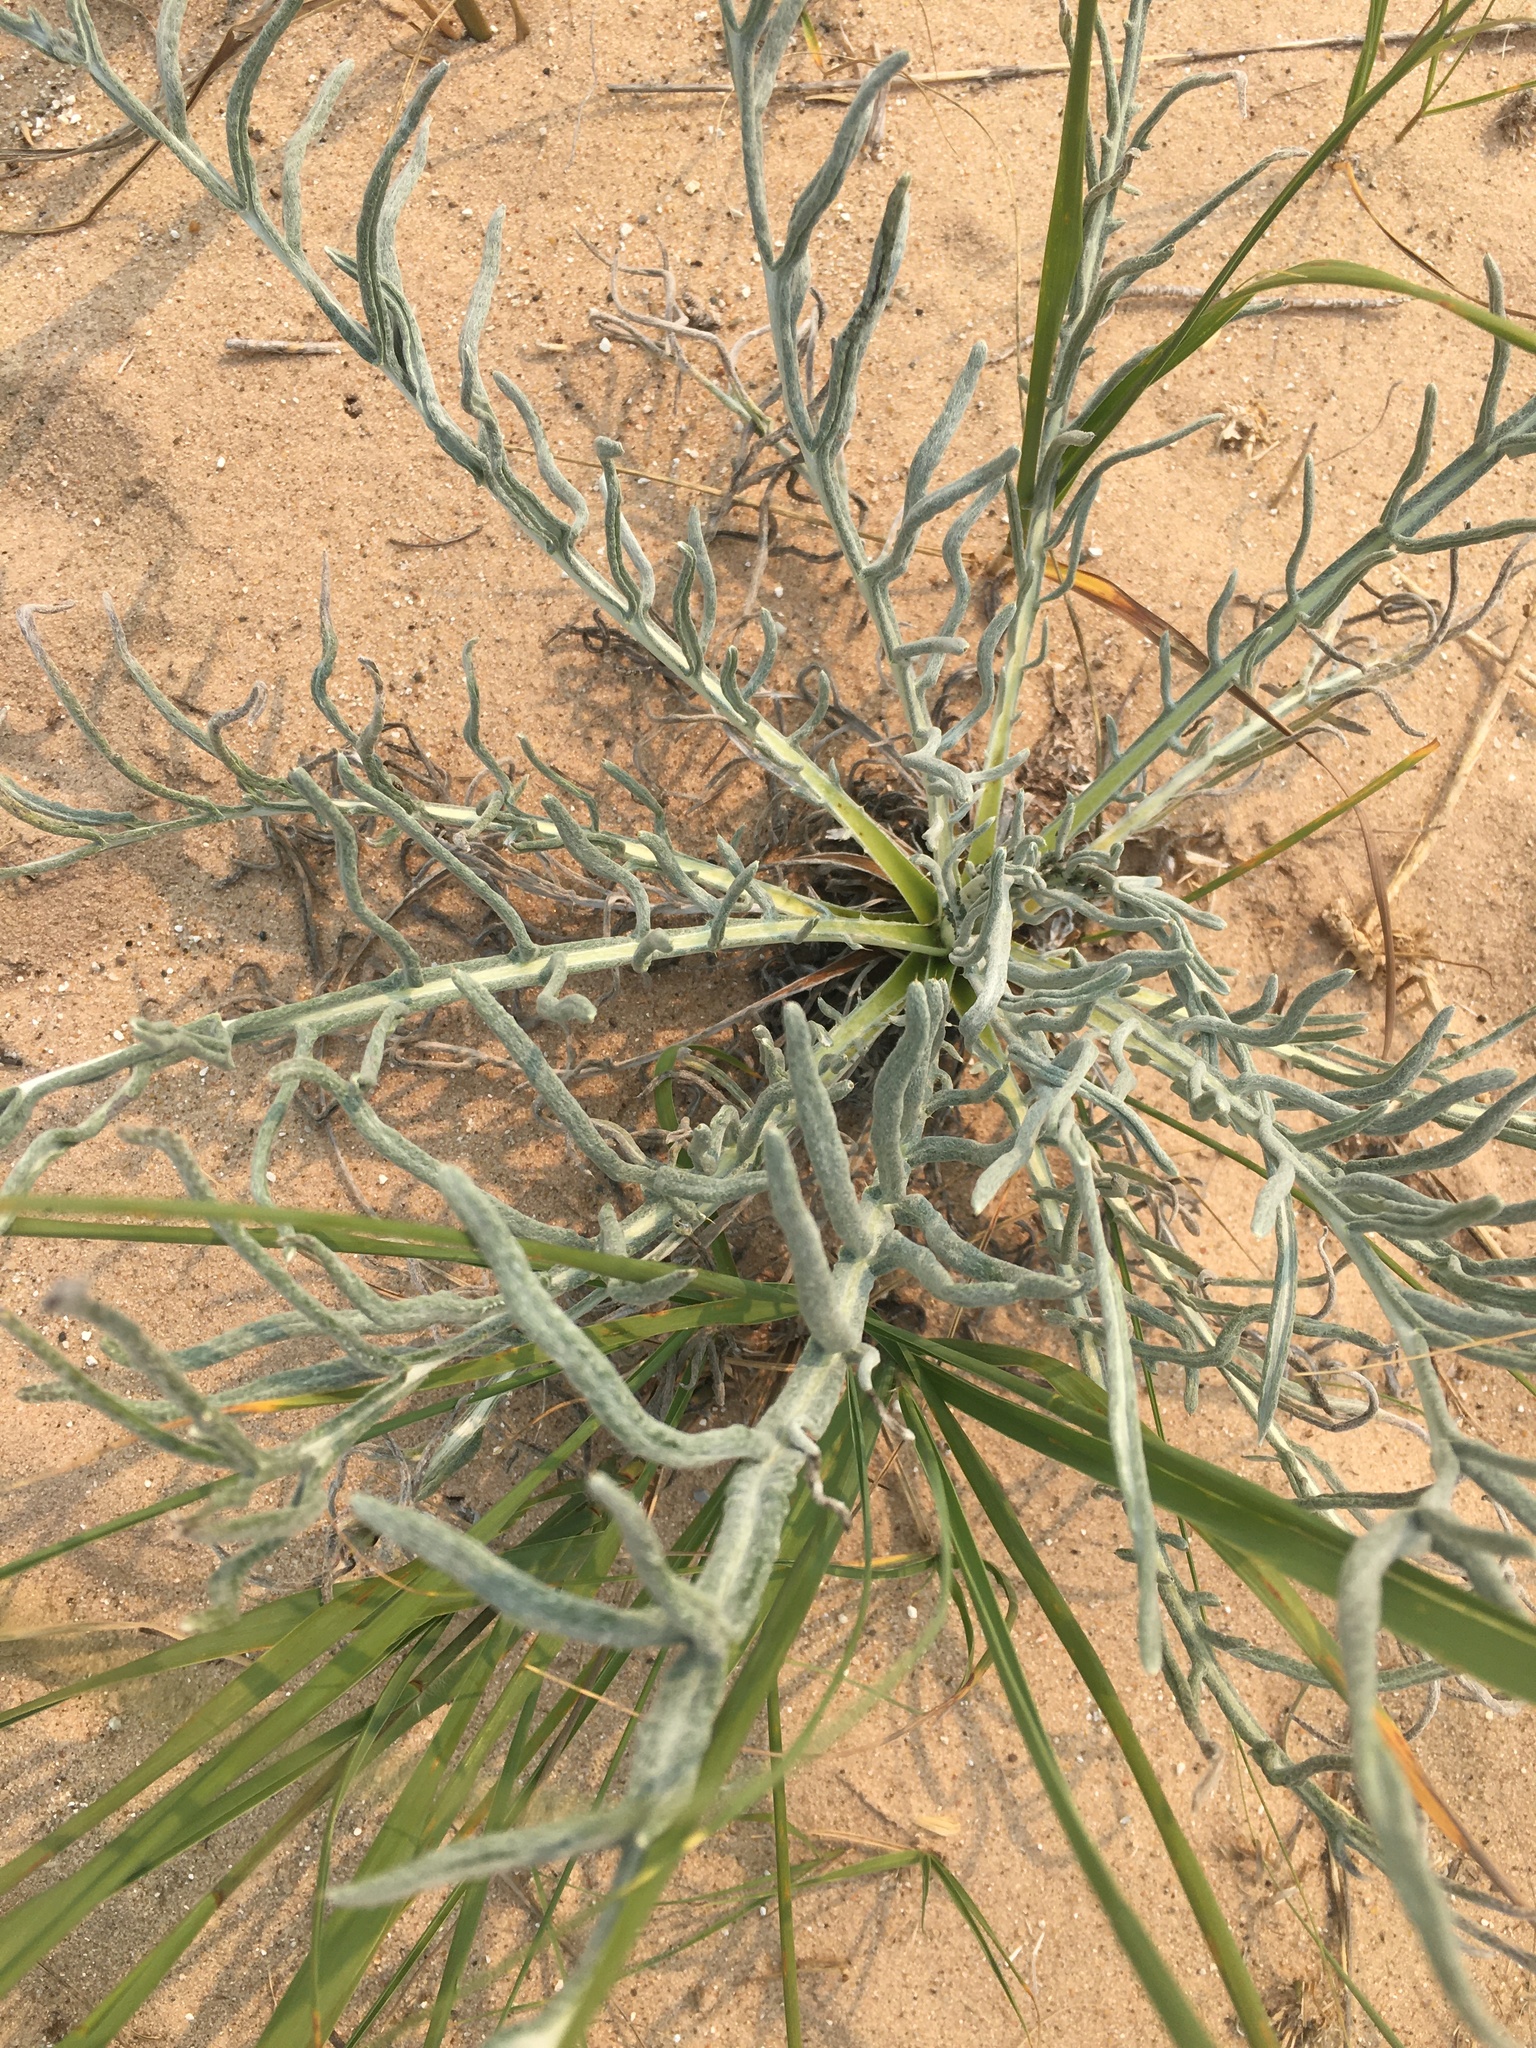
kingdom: Plantae
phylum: Tracheophyta
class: Magnoliopsida
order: Asterales
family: Asteraceae
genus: Cirsium
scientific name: Cirsium pitcheri
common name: Dune thistle
